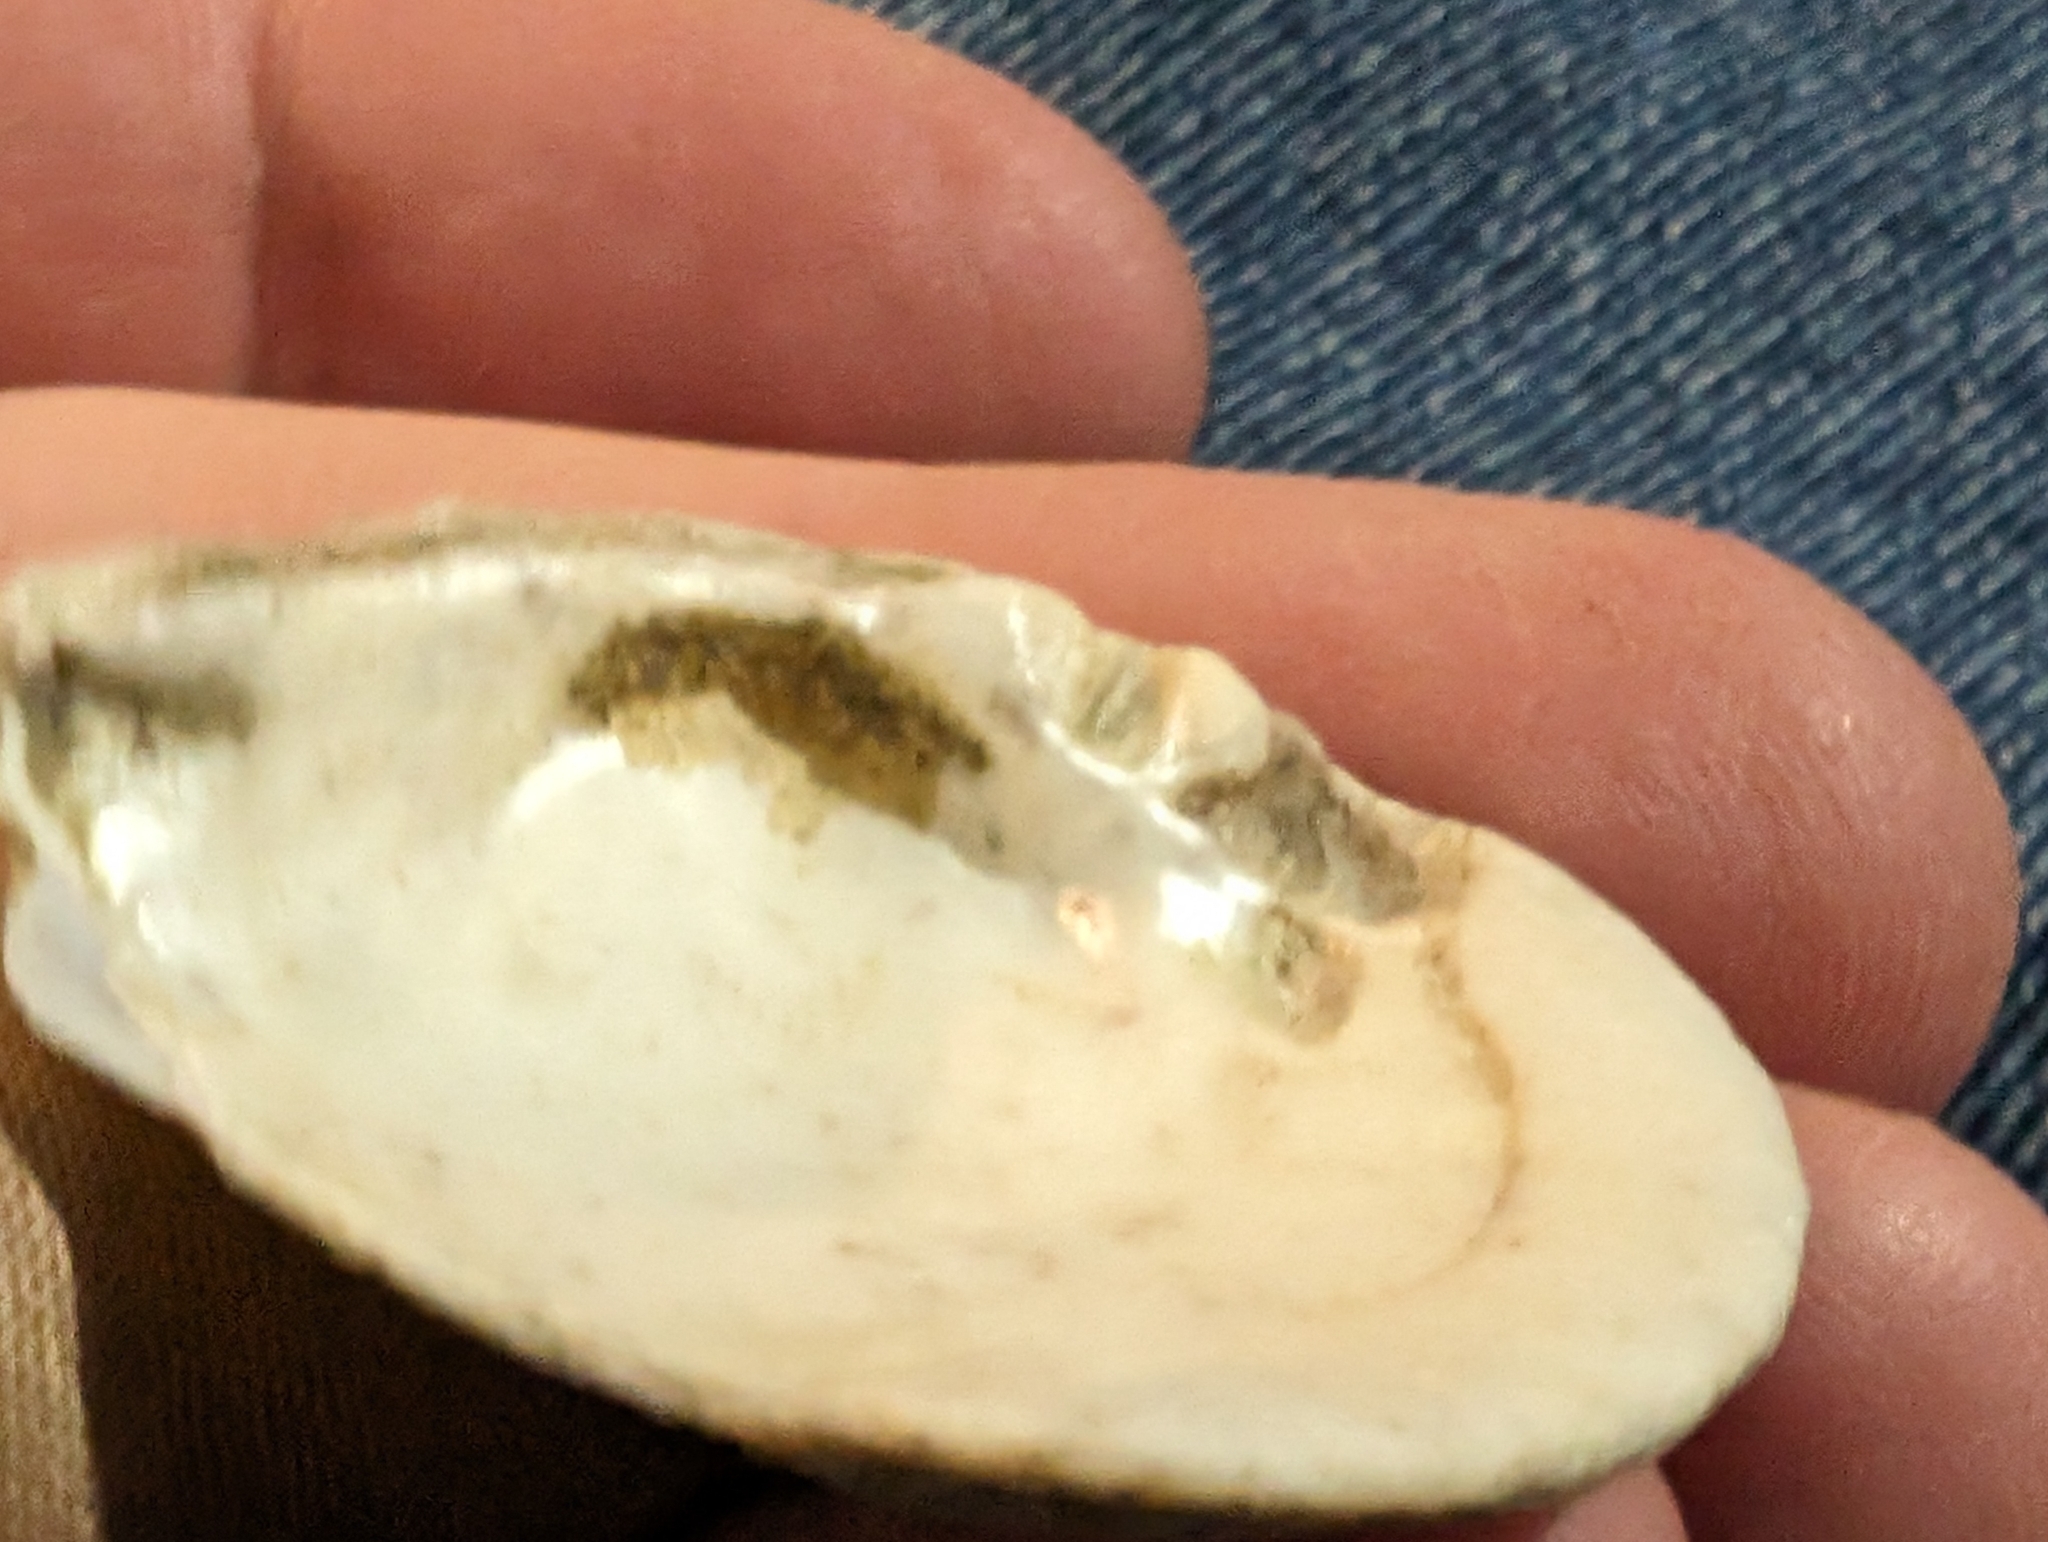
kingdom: Animalia
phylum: Mollusca
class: Bivalvia
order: Unionida
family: Unionidae
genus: Obovaria
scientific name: Obovaria olivaria
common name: Hickorynut
